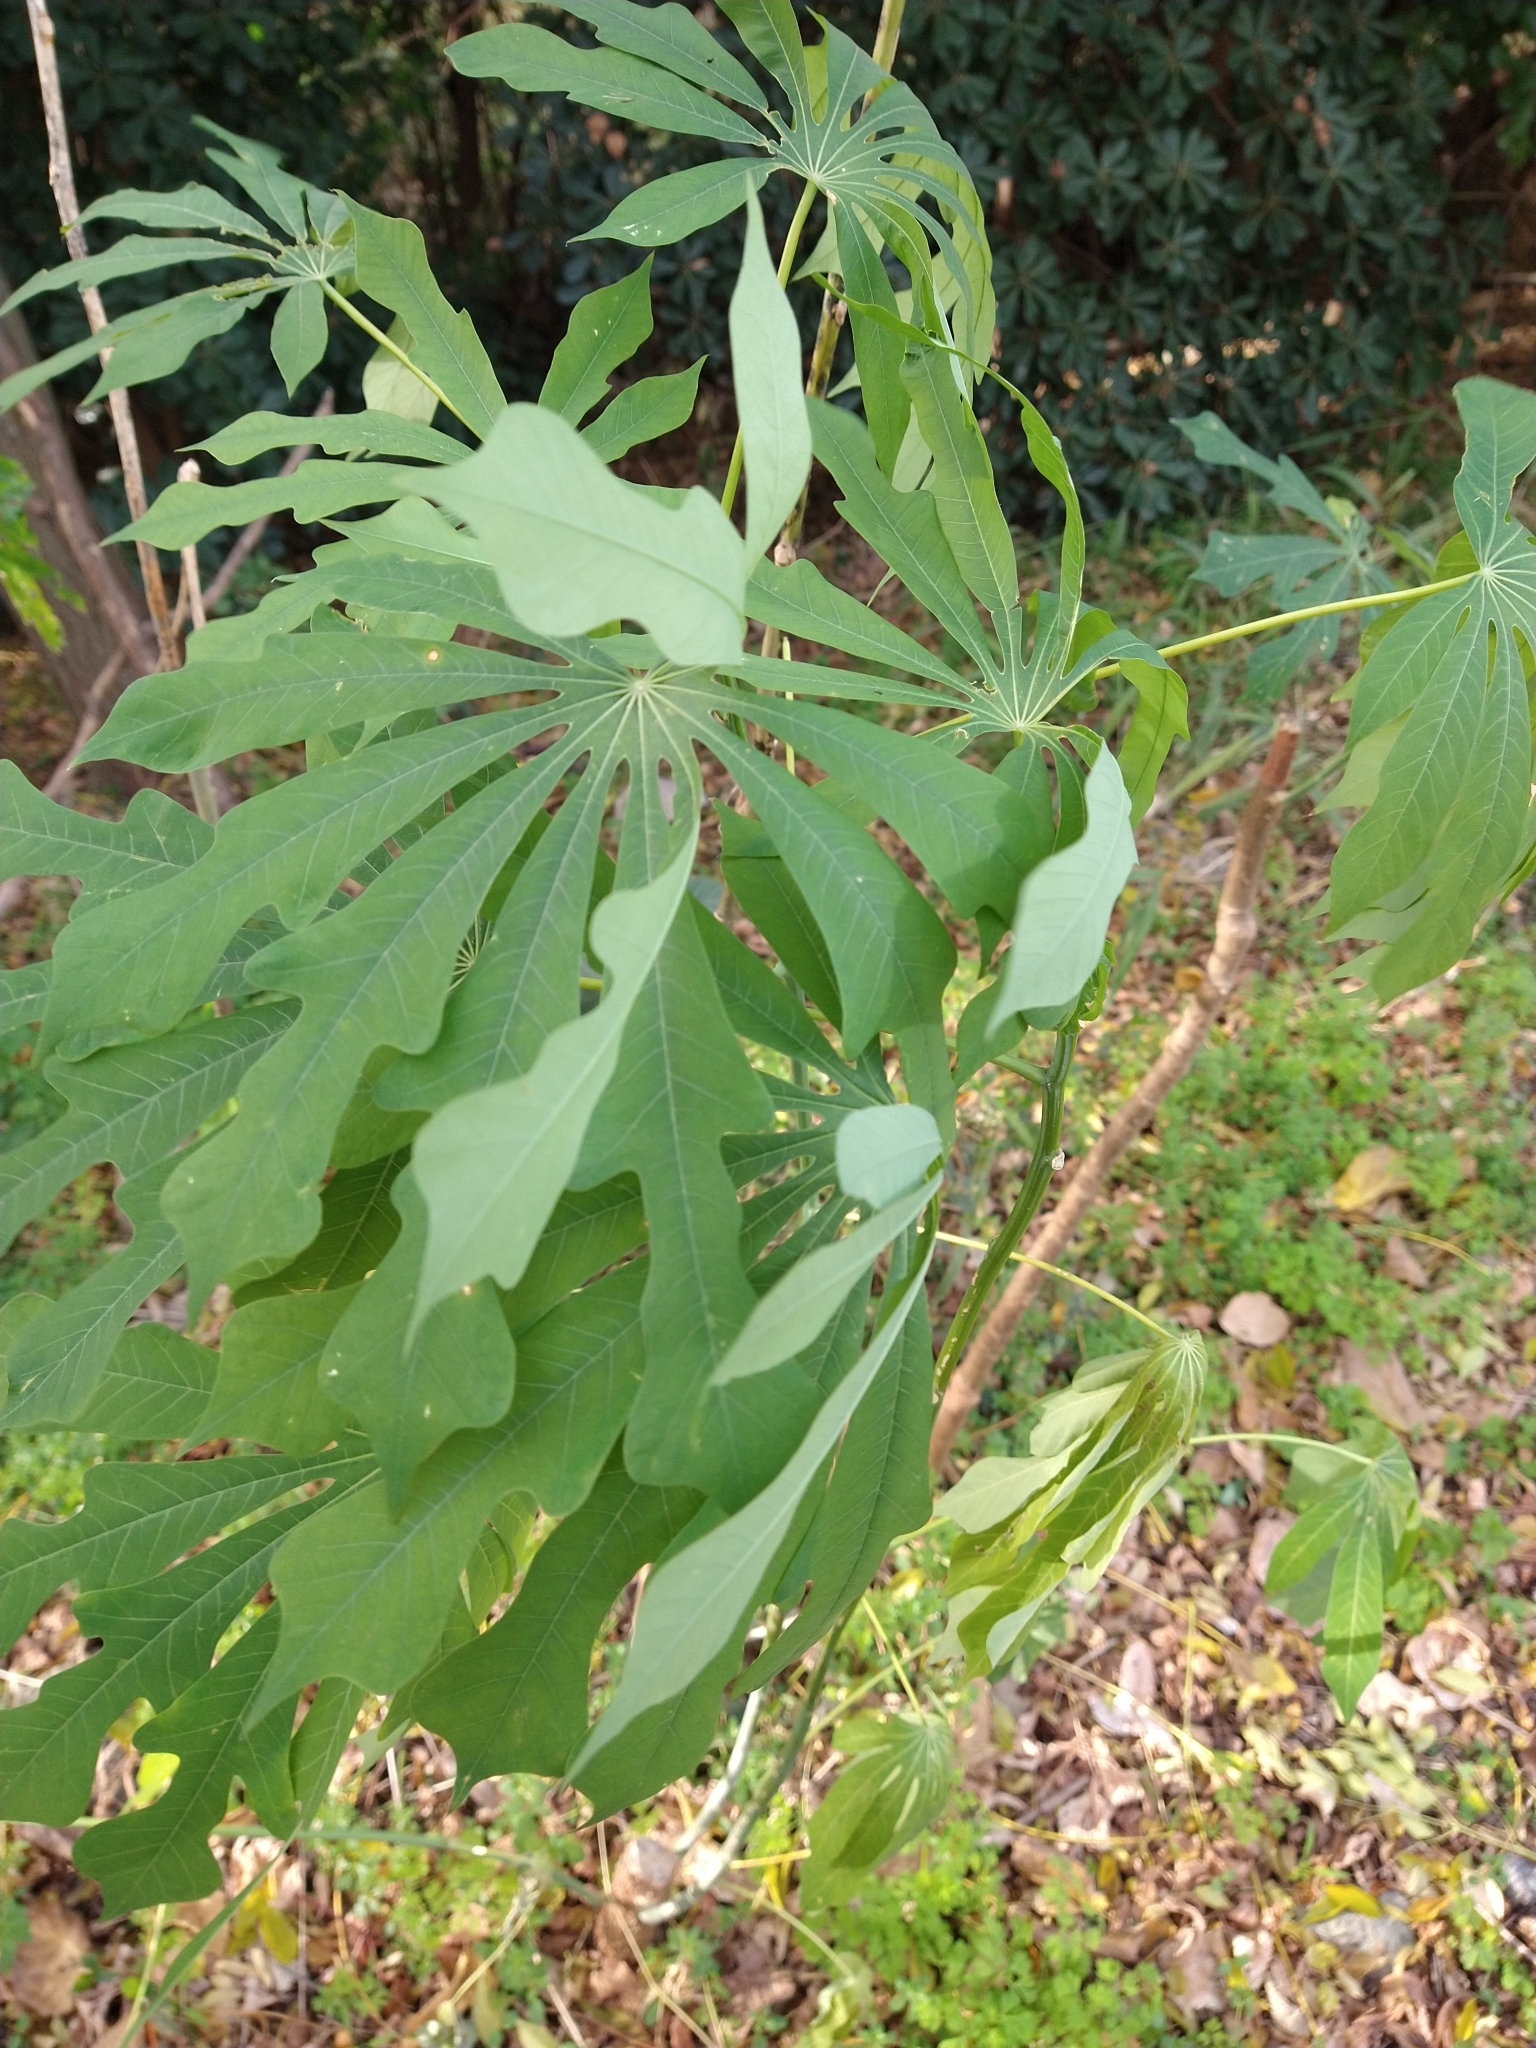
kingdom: Plantae
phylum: Tracheophyta
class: Magnoliopsida
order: Malpighiales
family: Euphorbiaceae
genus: Manihot
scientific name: Manihot grahamii
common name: Graham's manihot
